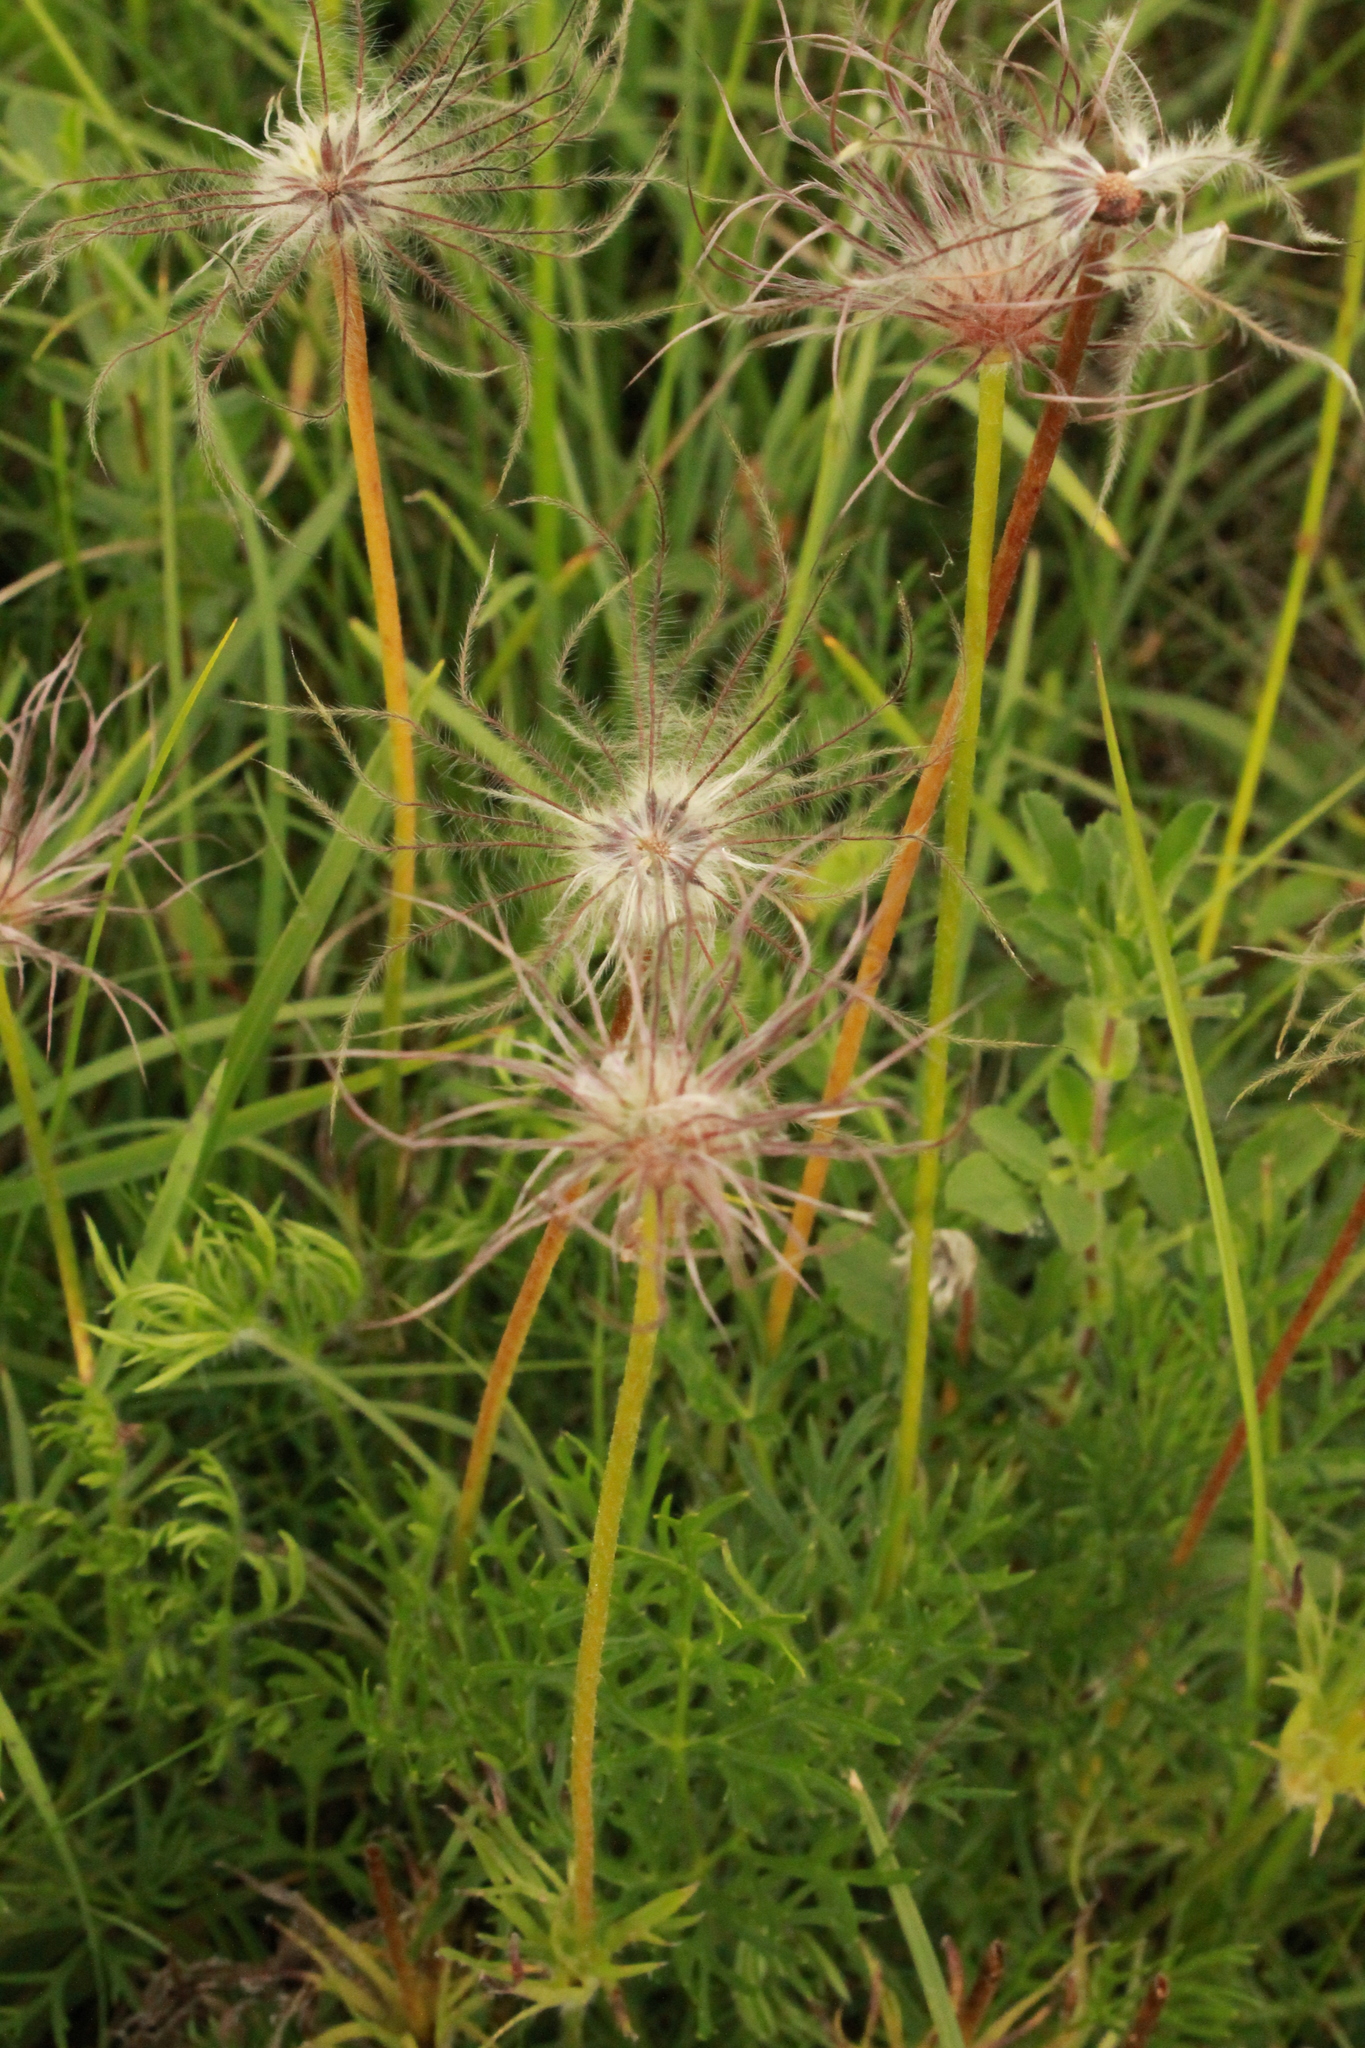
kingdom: Plantae
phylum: Tracheophyta
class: Magnoliopsida
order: Ranunculales
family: Ranunculaceae
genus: Pulsatilla
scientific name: Pulsatilla vulgaris
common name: Pasqueflower
